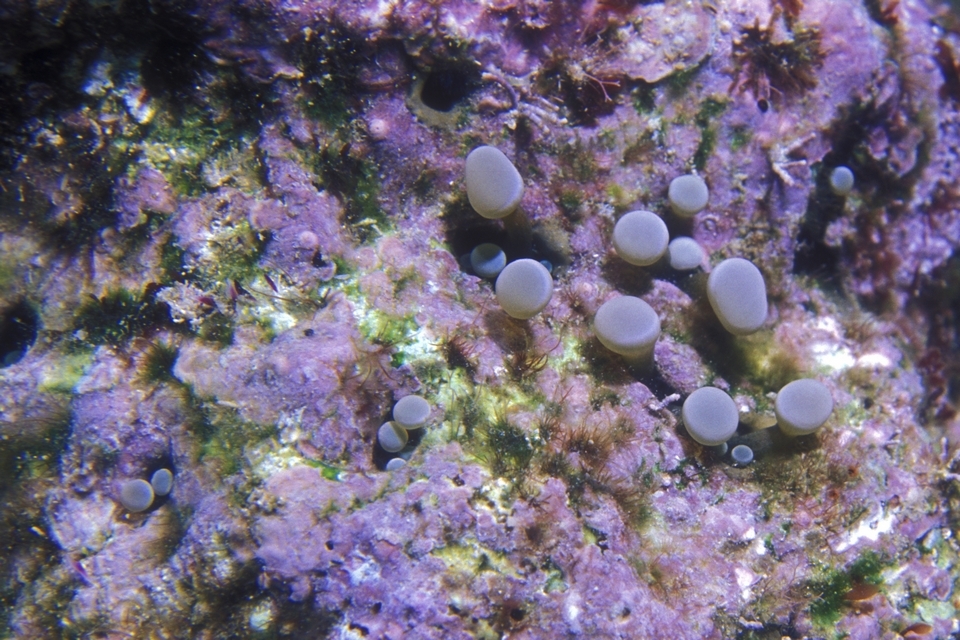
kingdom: Animalia
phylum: Cnidaria
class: Anthozoa
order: Actiniaria
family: Aliciidae
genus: Lebrunia
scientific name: Lebrunia coralligens
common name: Hidden anemone
